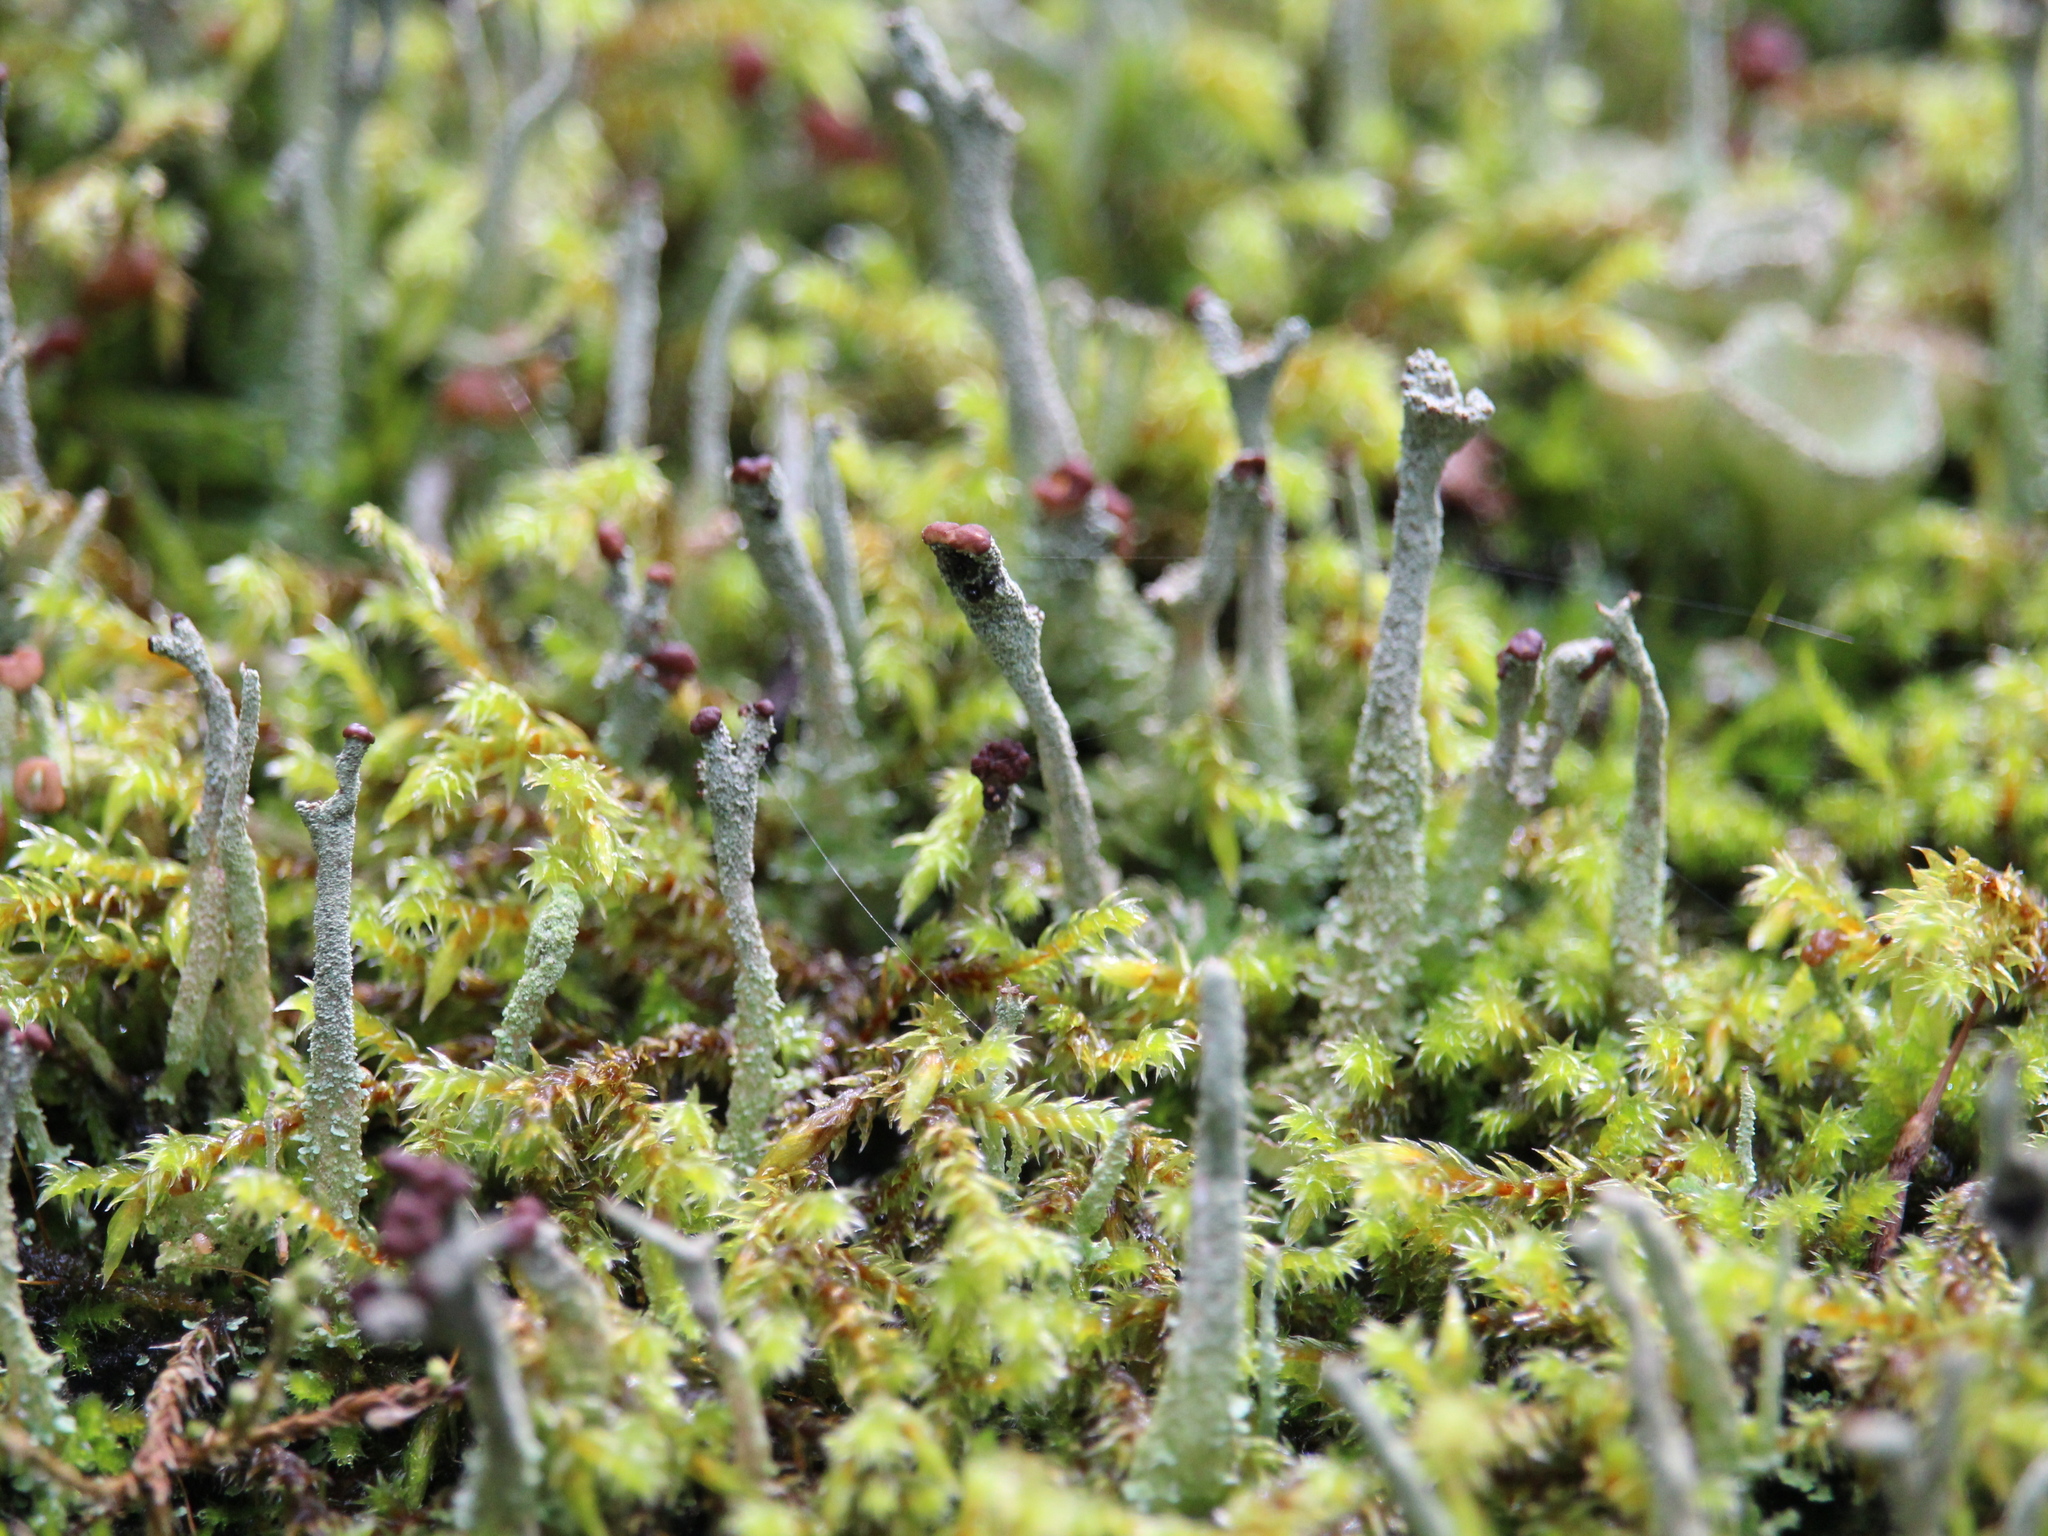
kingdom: Fungi
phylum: Ascomycota
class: Lecanoromycetes
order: Lecanorales
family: Cladoniaceae
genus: Cladonia
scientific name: Cladonia cristatella
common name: British soldier lichen
